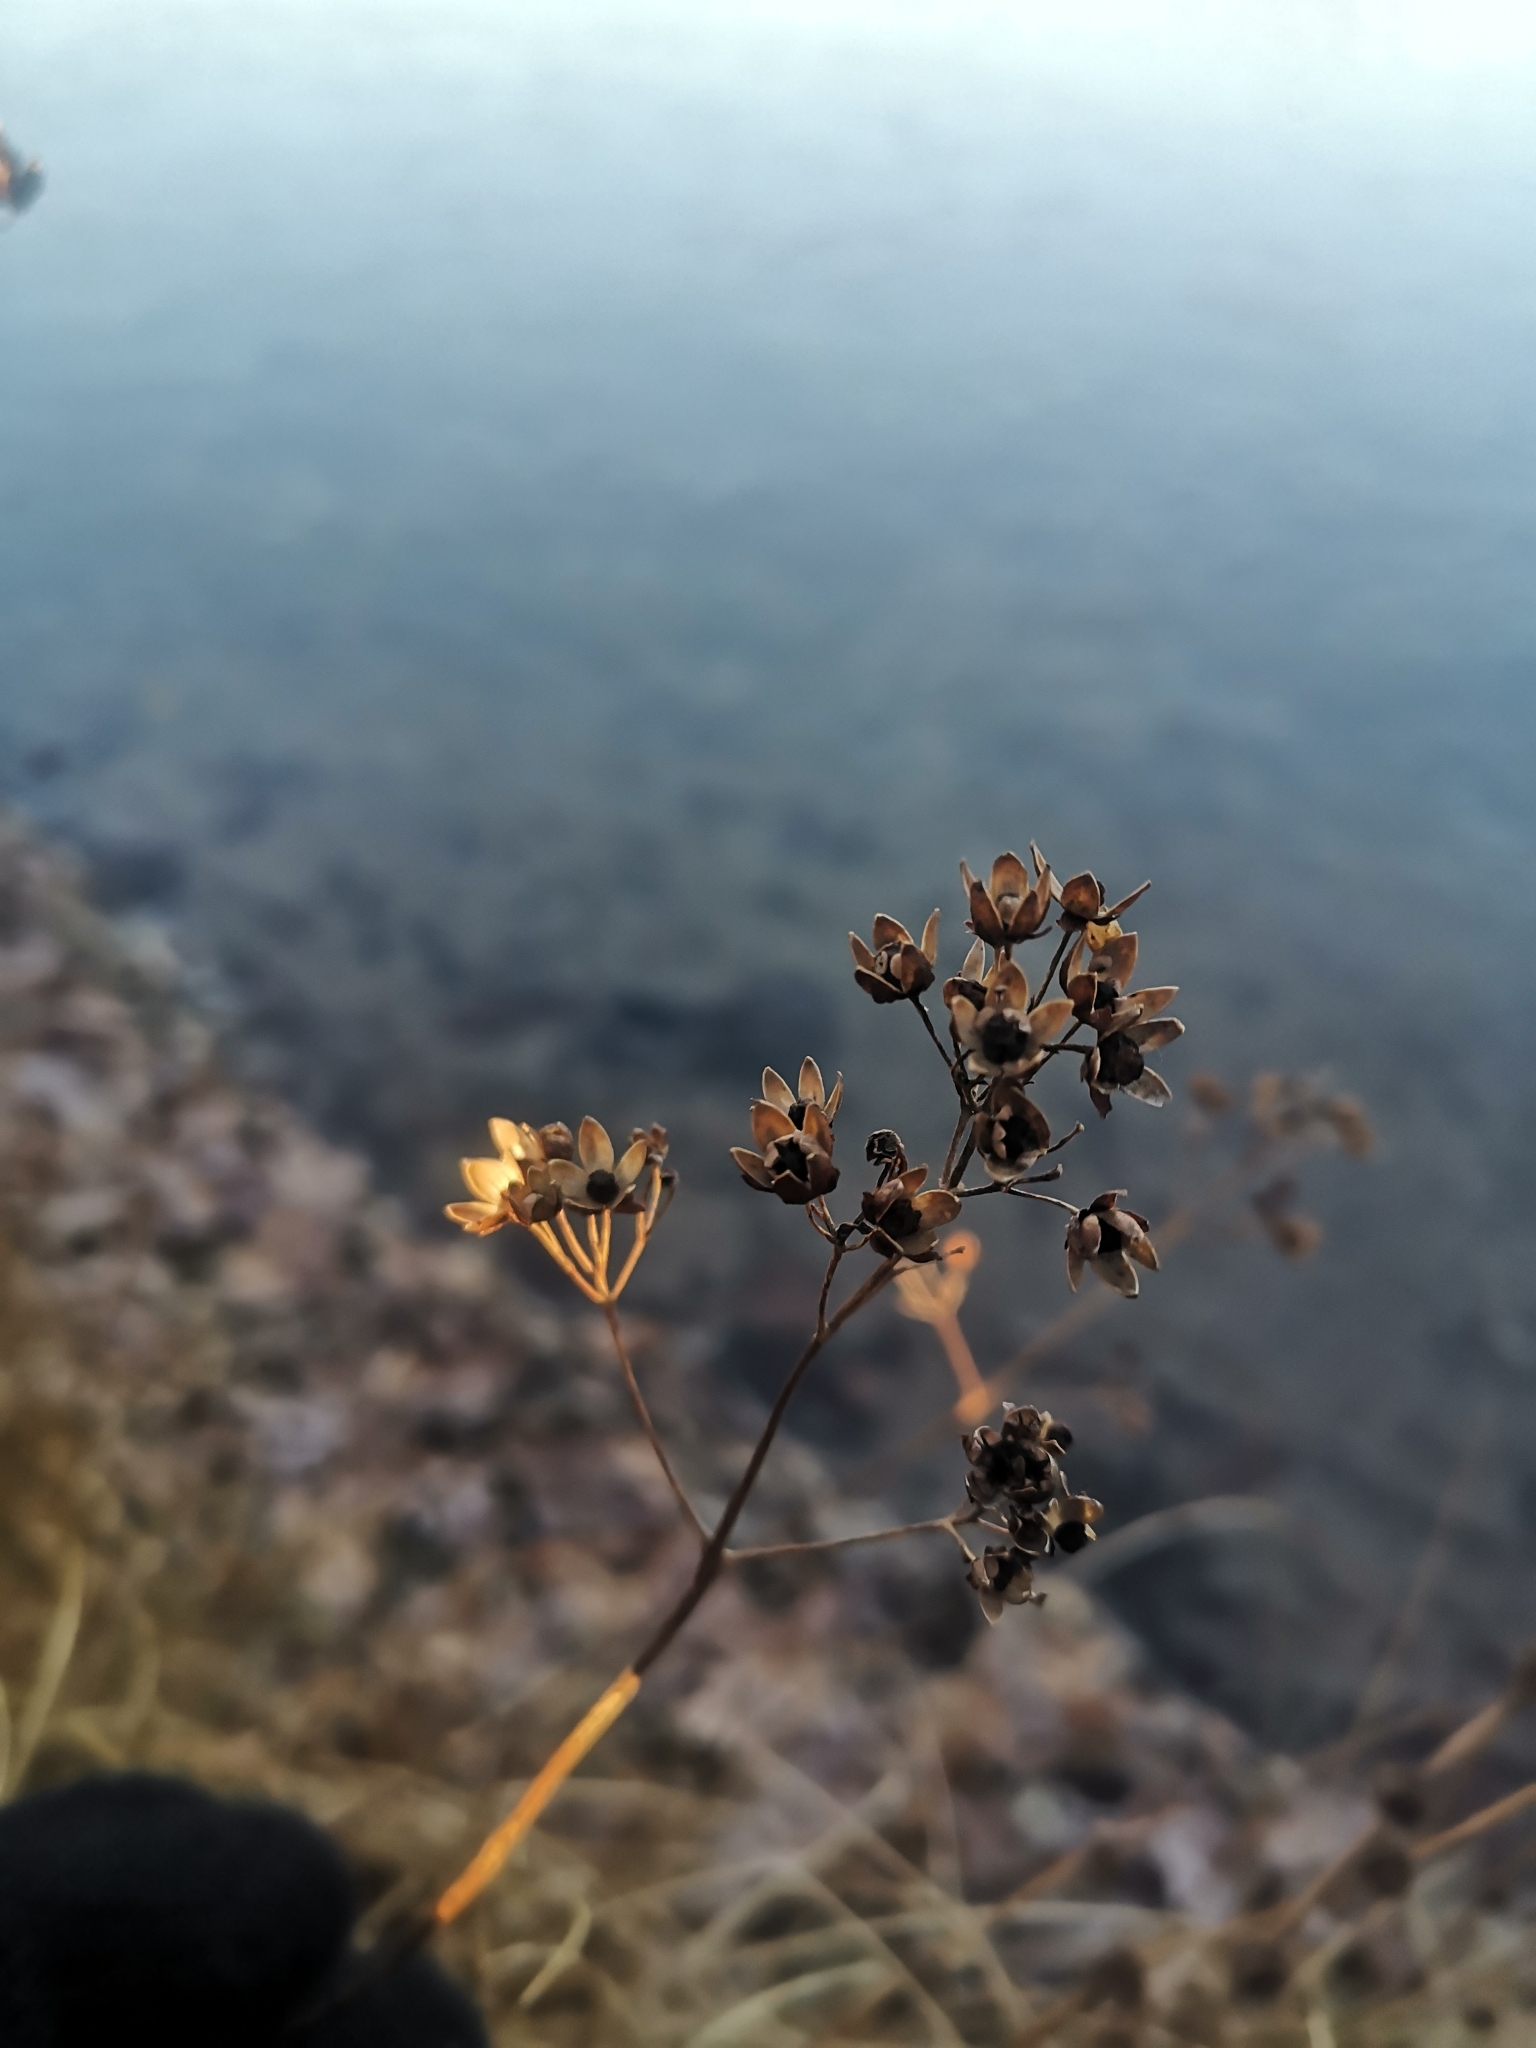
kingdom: Plantae
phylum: Tracheophyta
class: Magnoliopsida
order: Ericales
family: Primulaceae
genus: Lysimachia
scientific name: Lysimachia vulgaris
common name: Yellow loosestrife
